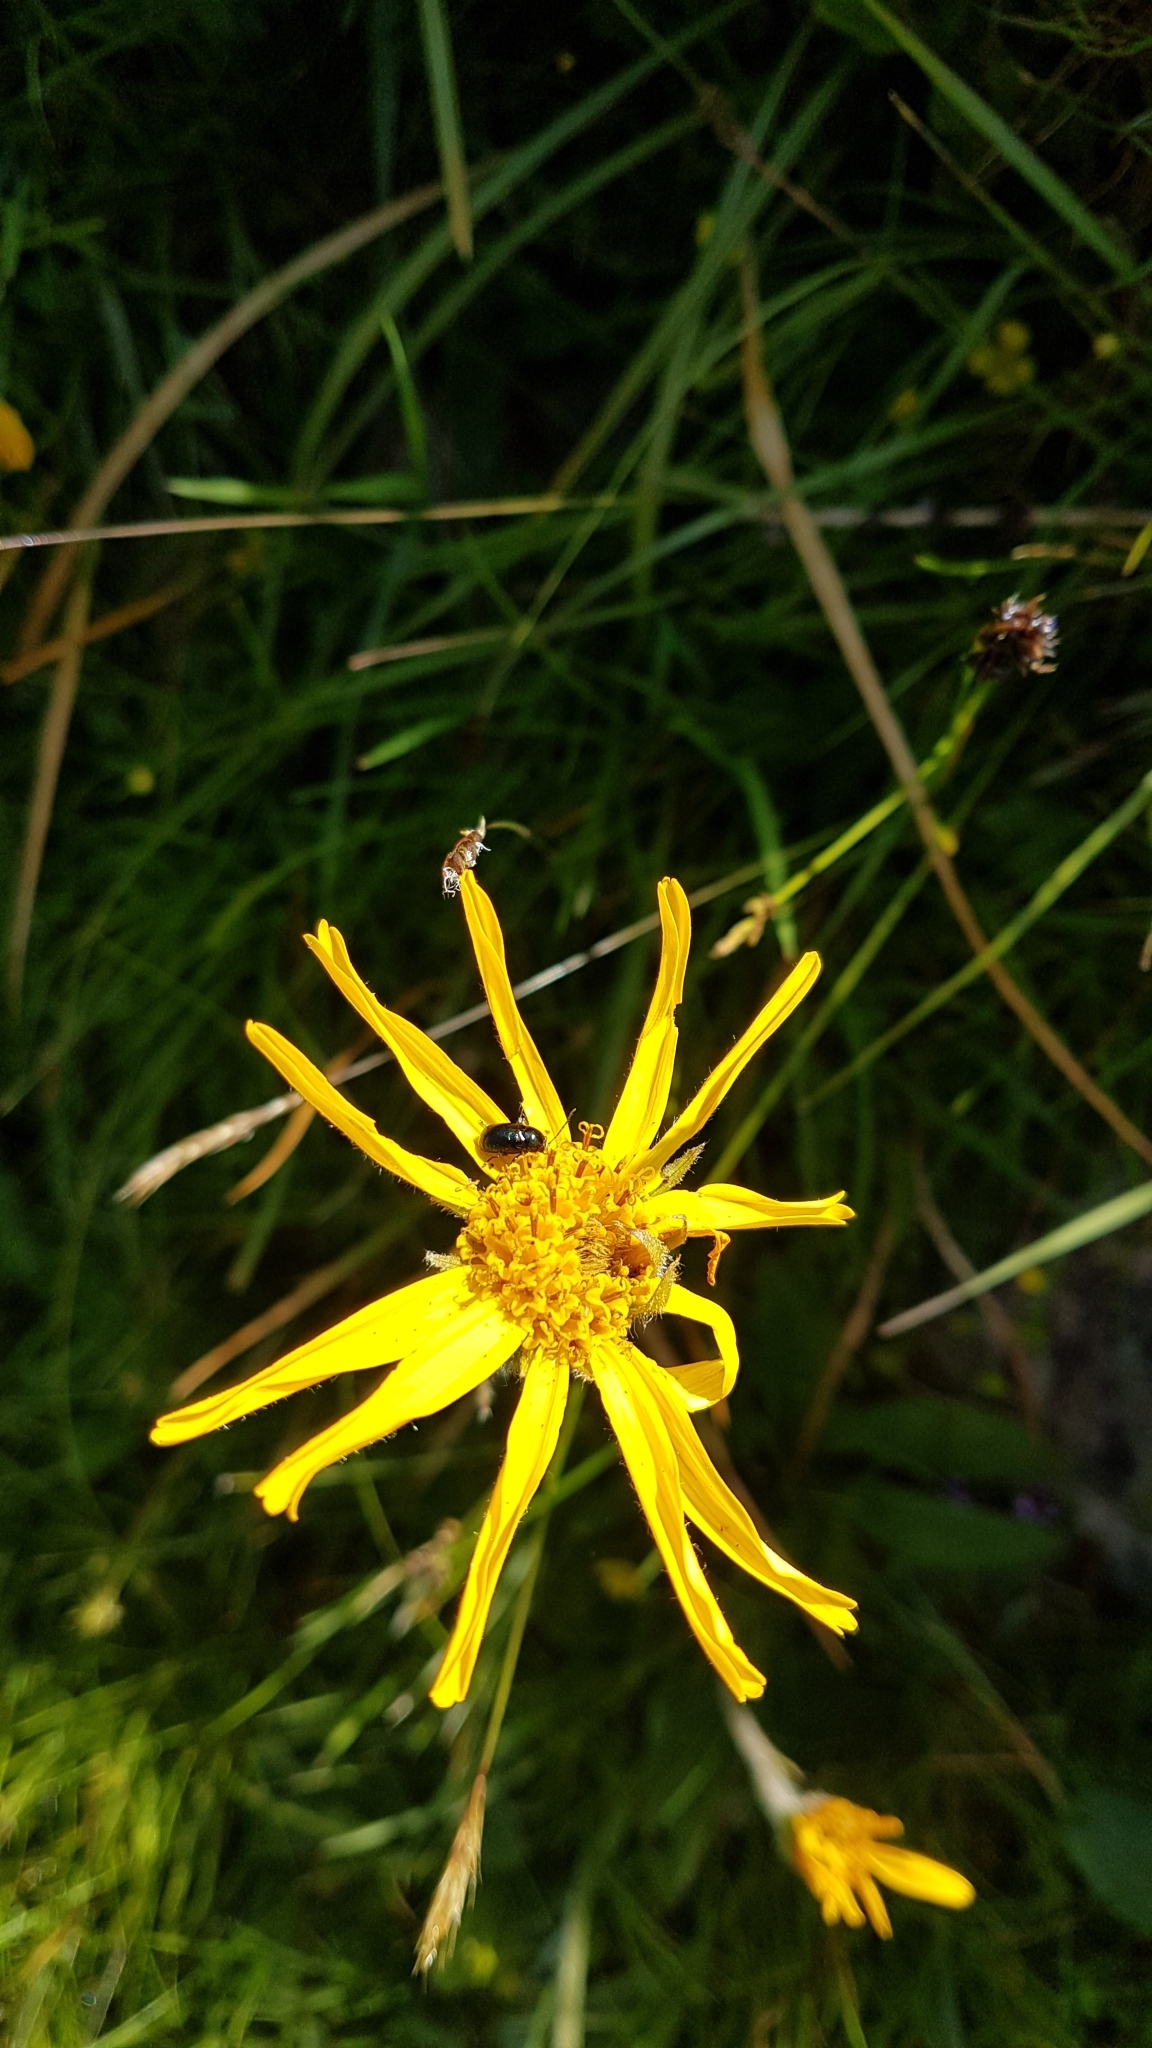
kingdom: Plantae
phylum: Tracheophyta
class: Magnoliopsida
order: Asterales
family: Asteraceae
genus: Arnica
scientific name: Arnica montana
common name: Leopard's bane
